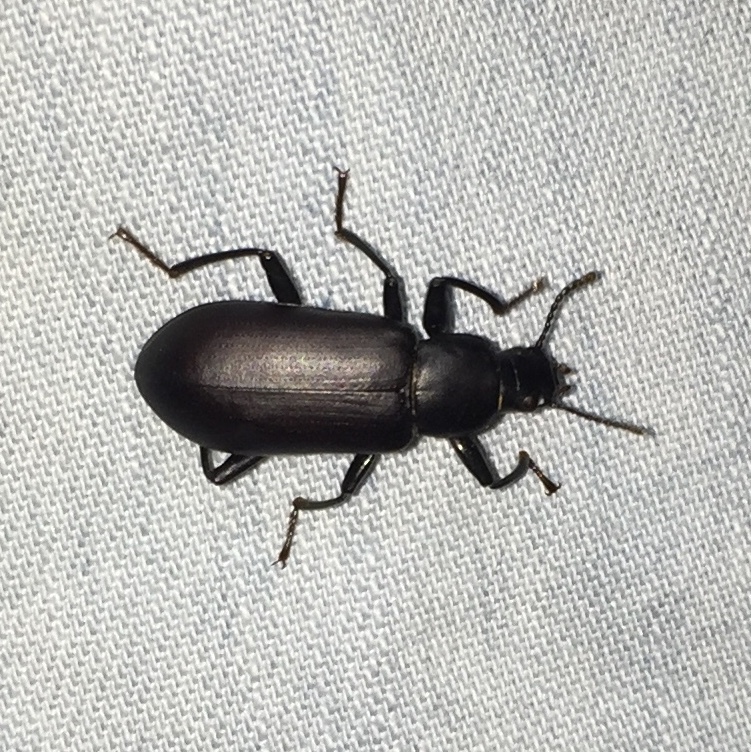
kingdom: Animalia
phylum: Arthropoda
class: Insecta
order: Coleoptera
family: Tenebrionidae
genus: Alobates
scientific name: Alobates pensylvanicus
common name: False mealworm beetle
